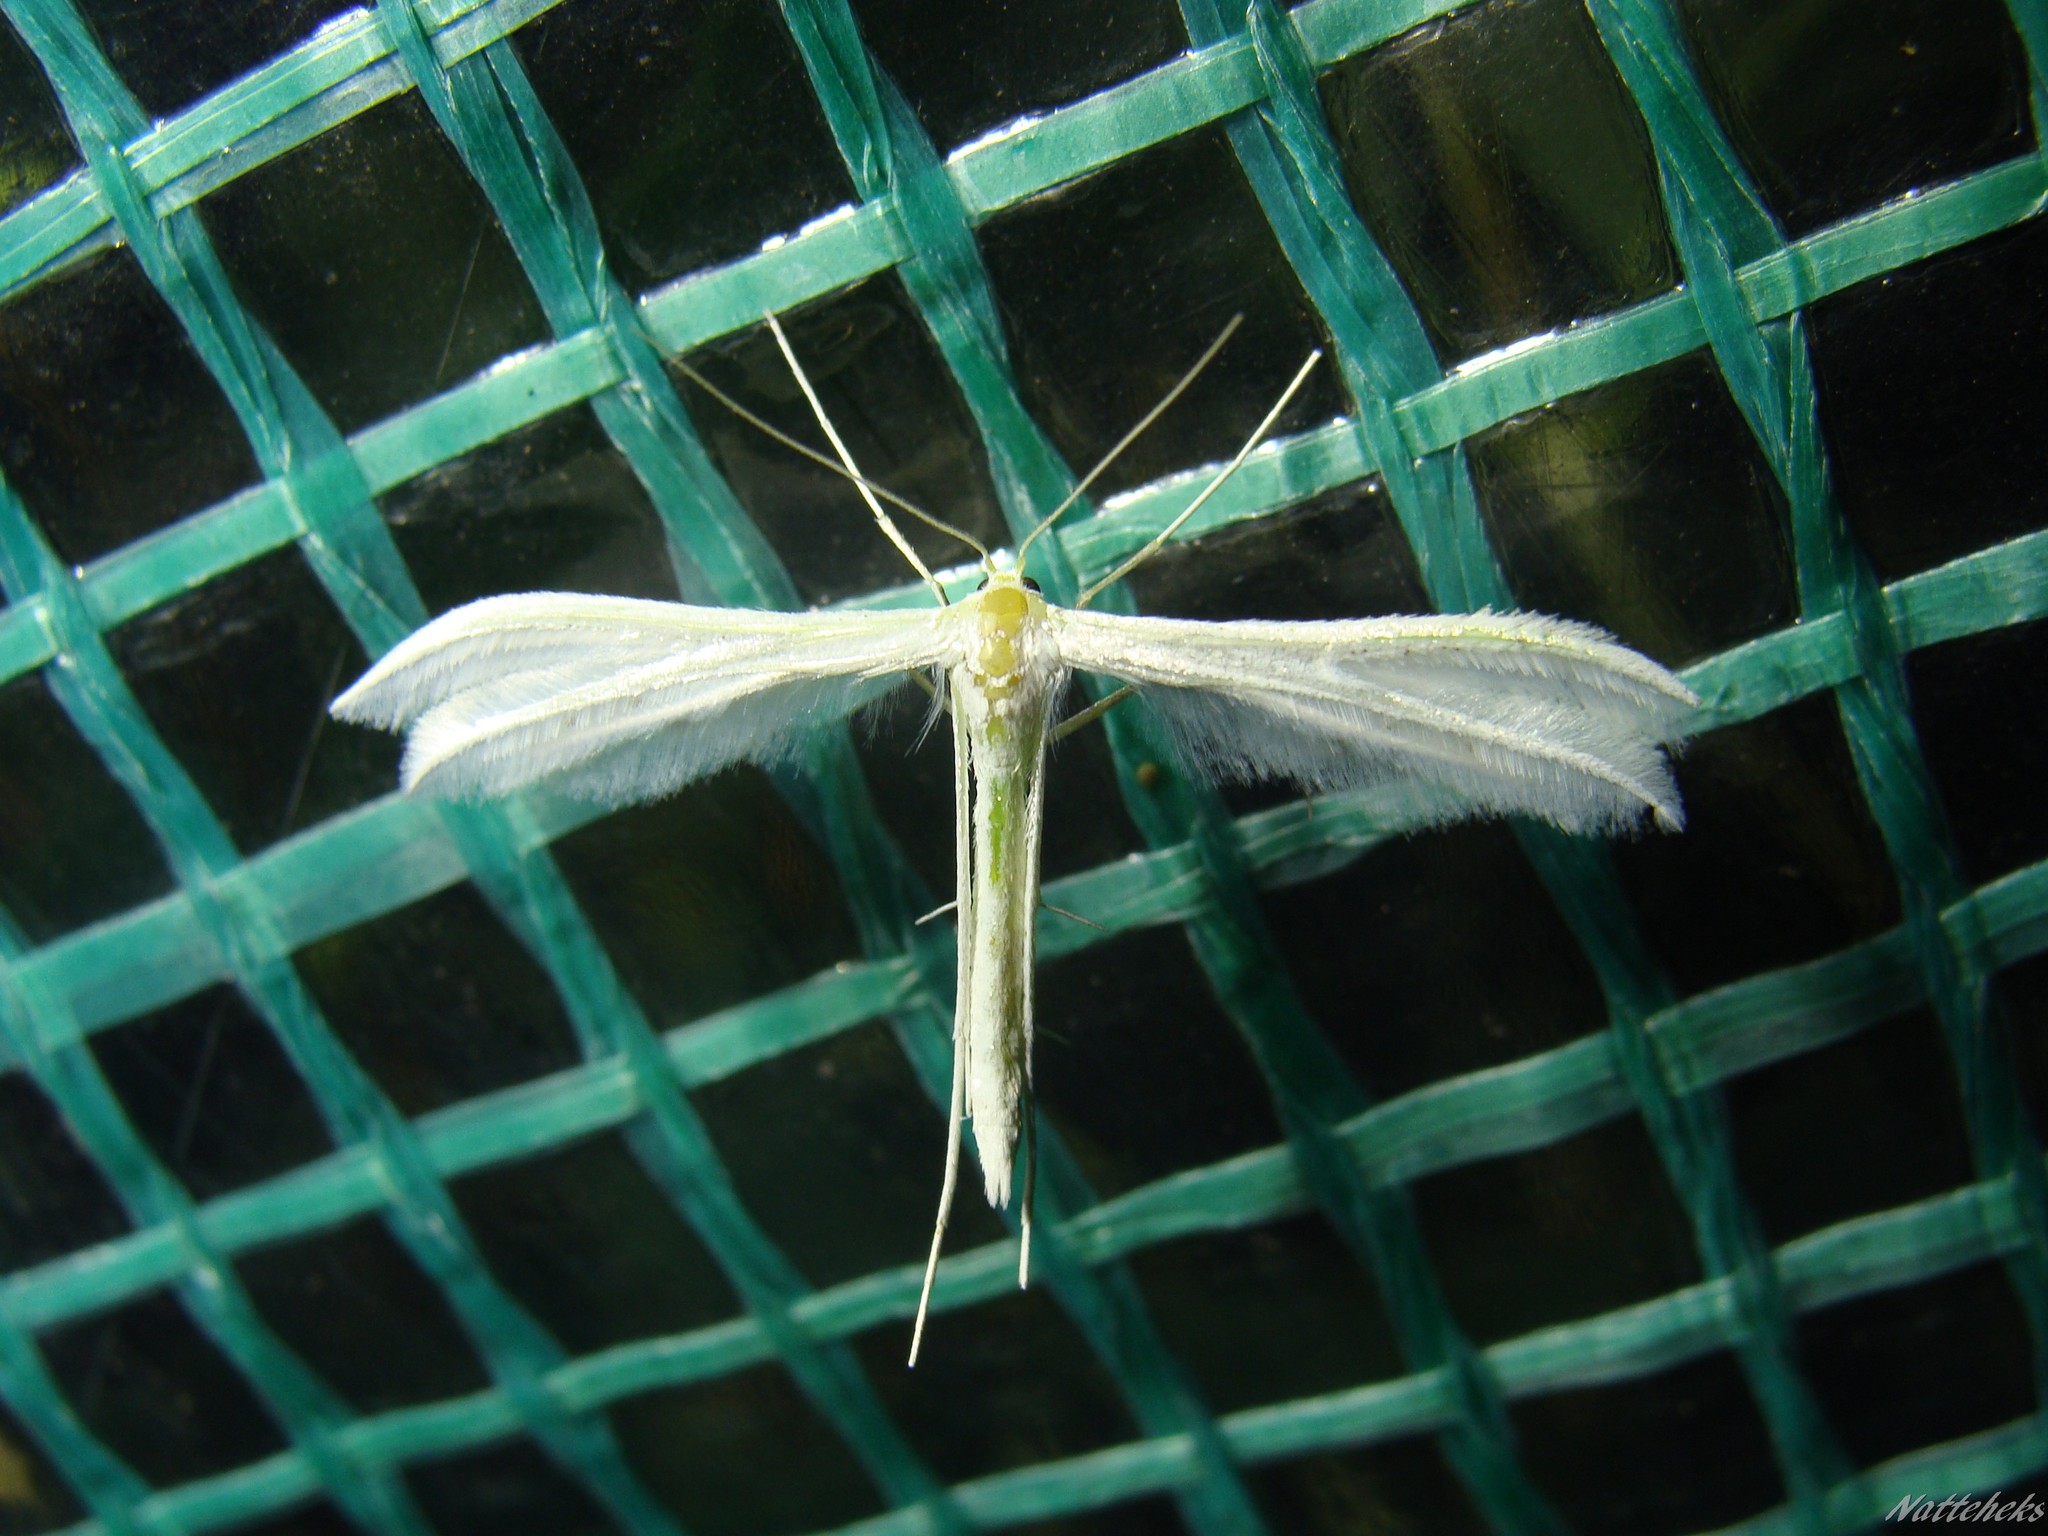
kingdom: Animalia
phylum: Arthropoda
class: Insecta
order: Lepidoptera
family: Pterophoridae
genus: Pterophorus
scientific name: Pterophorus pentadactyla
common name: White plume moth
